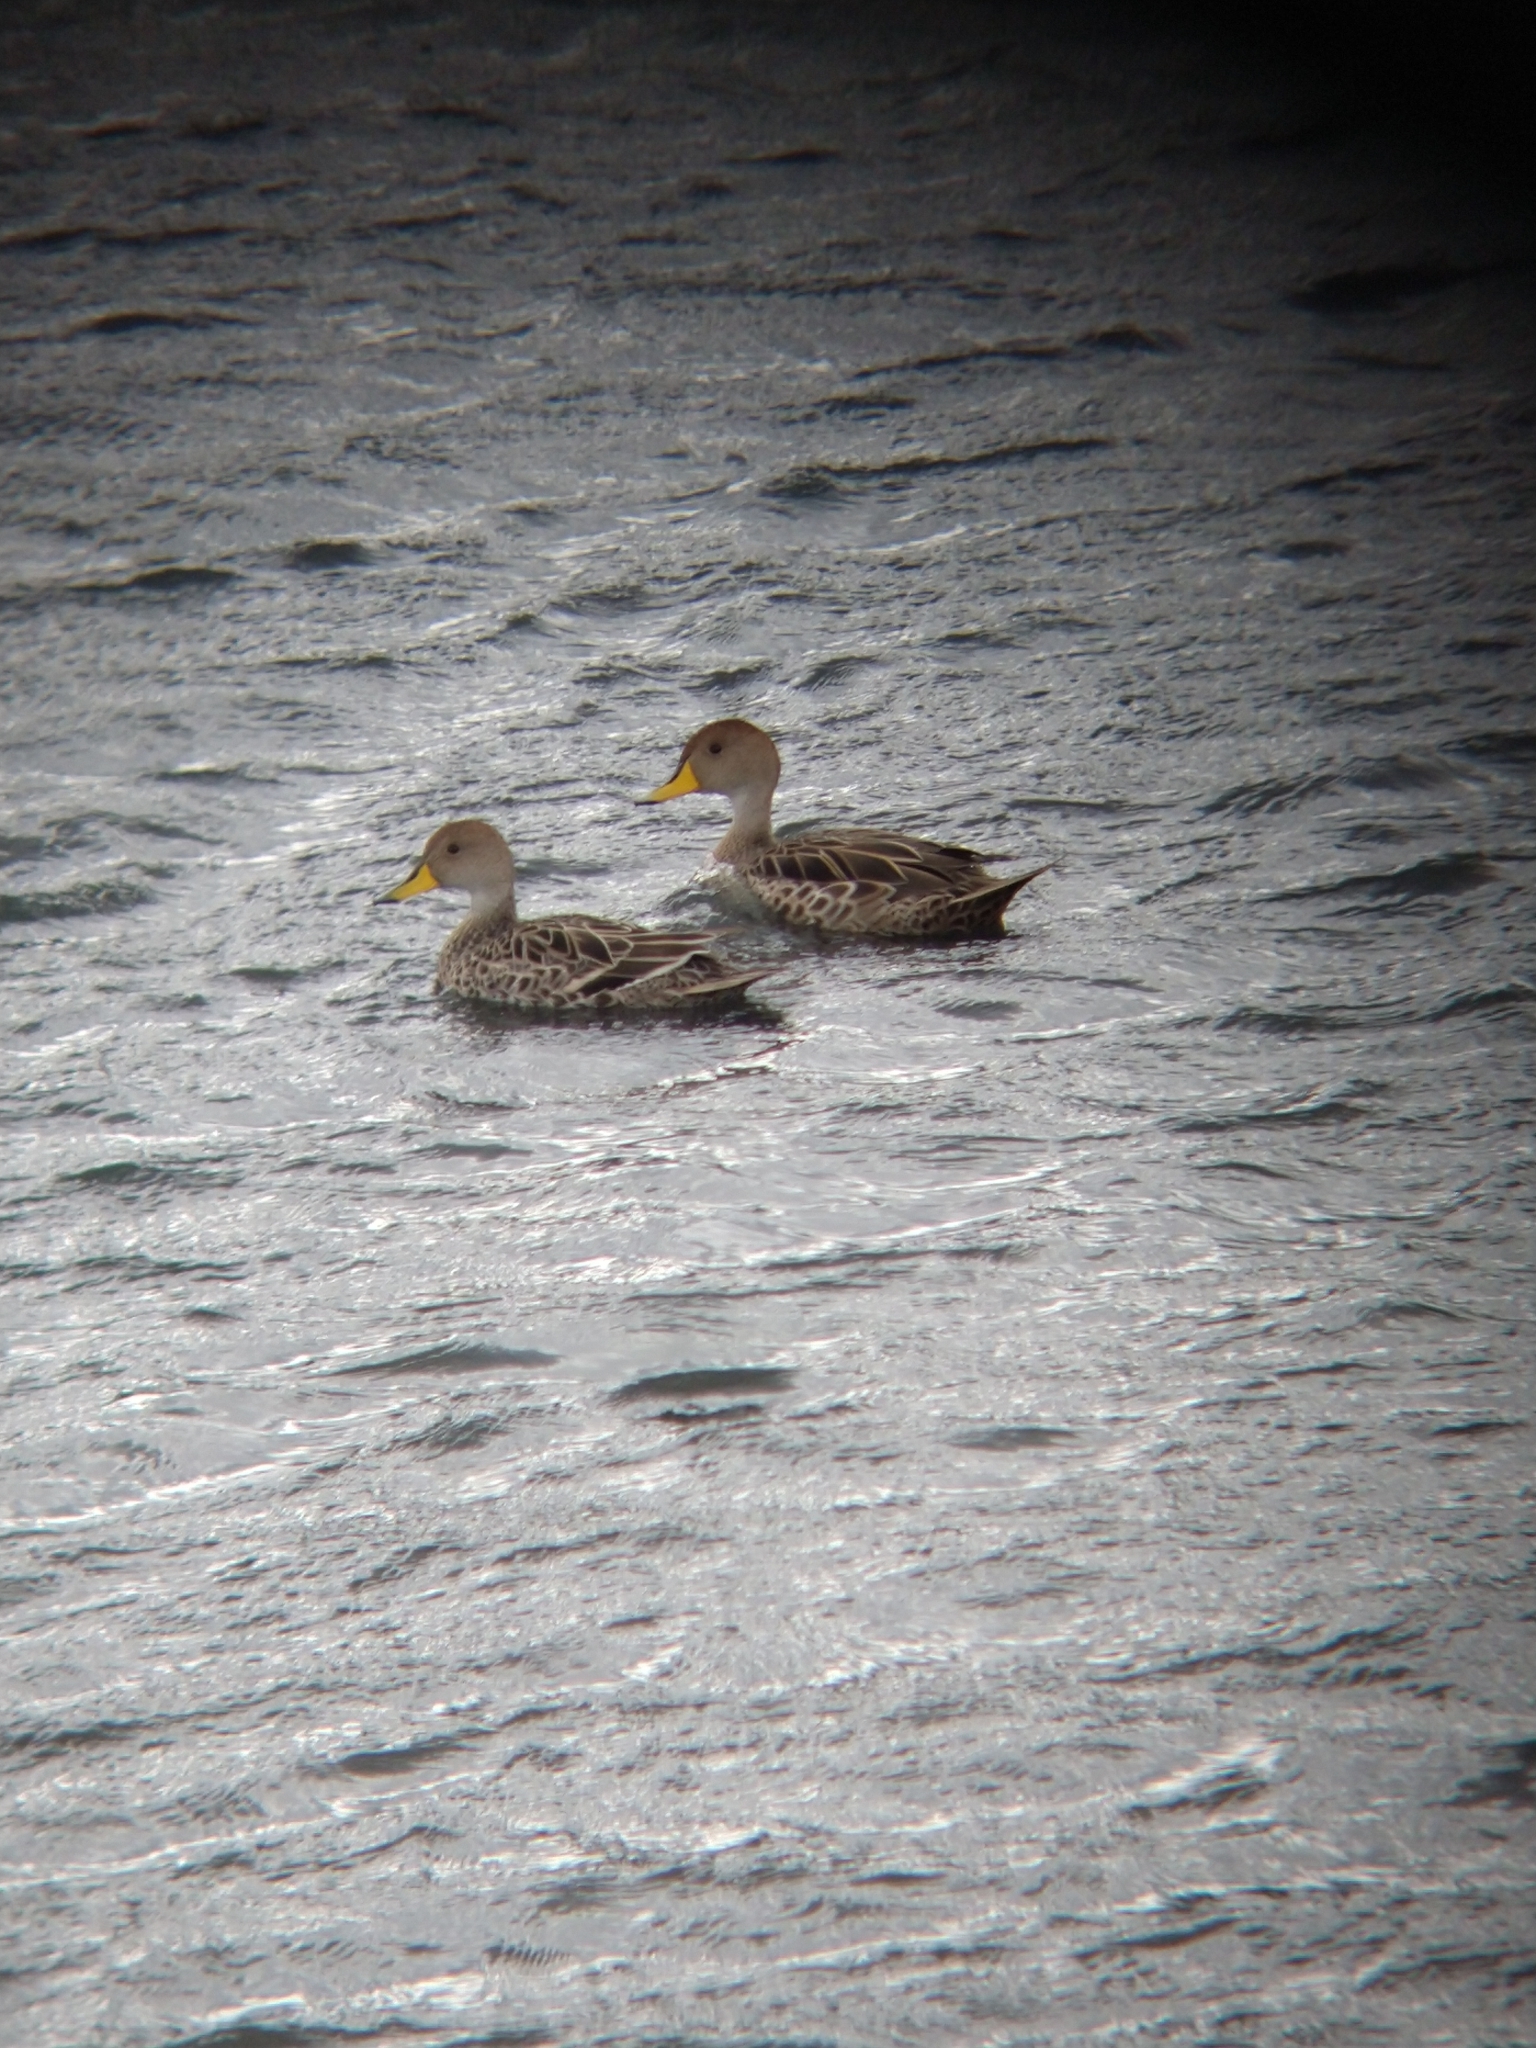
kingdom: Animalia
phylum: Chordata
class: Aves
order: Anseriformes
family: Anatidae
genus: Anas
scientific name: Anas georgica
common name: Yellow-billed pintail
